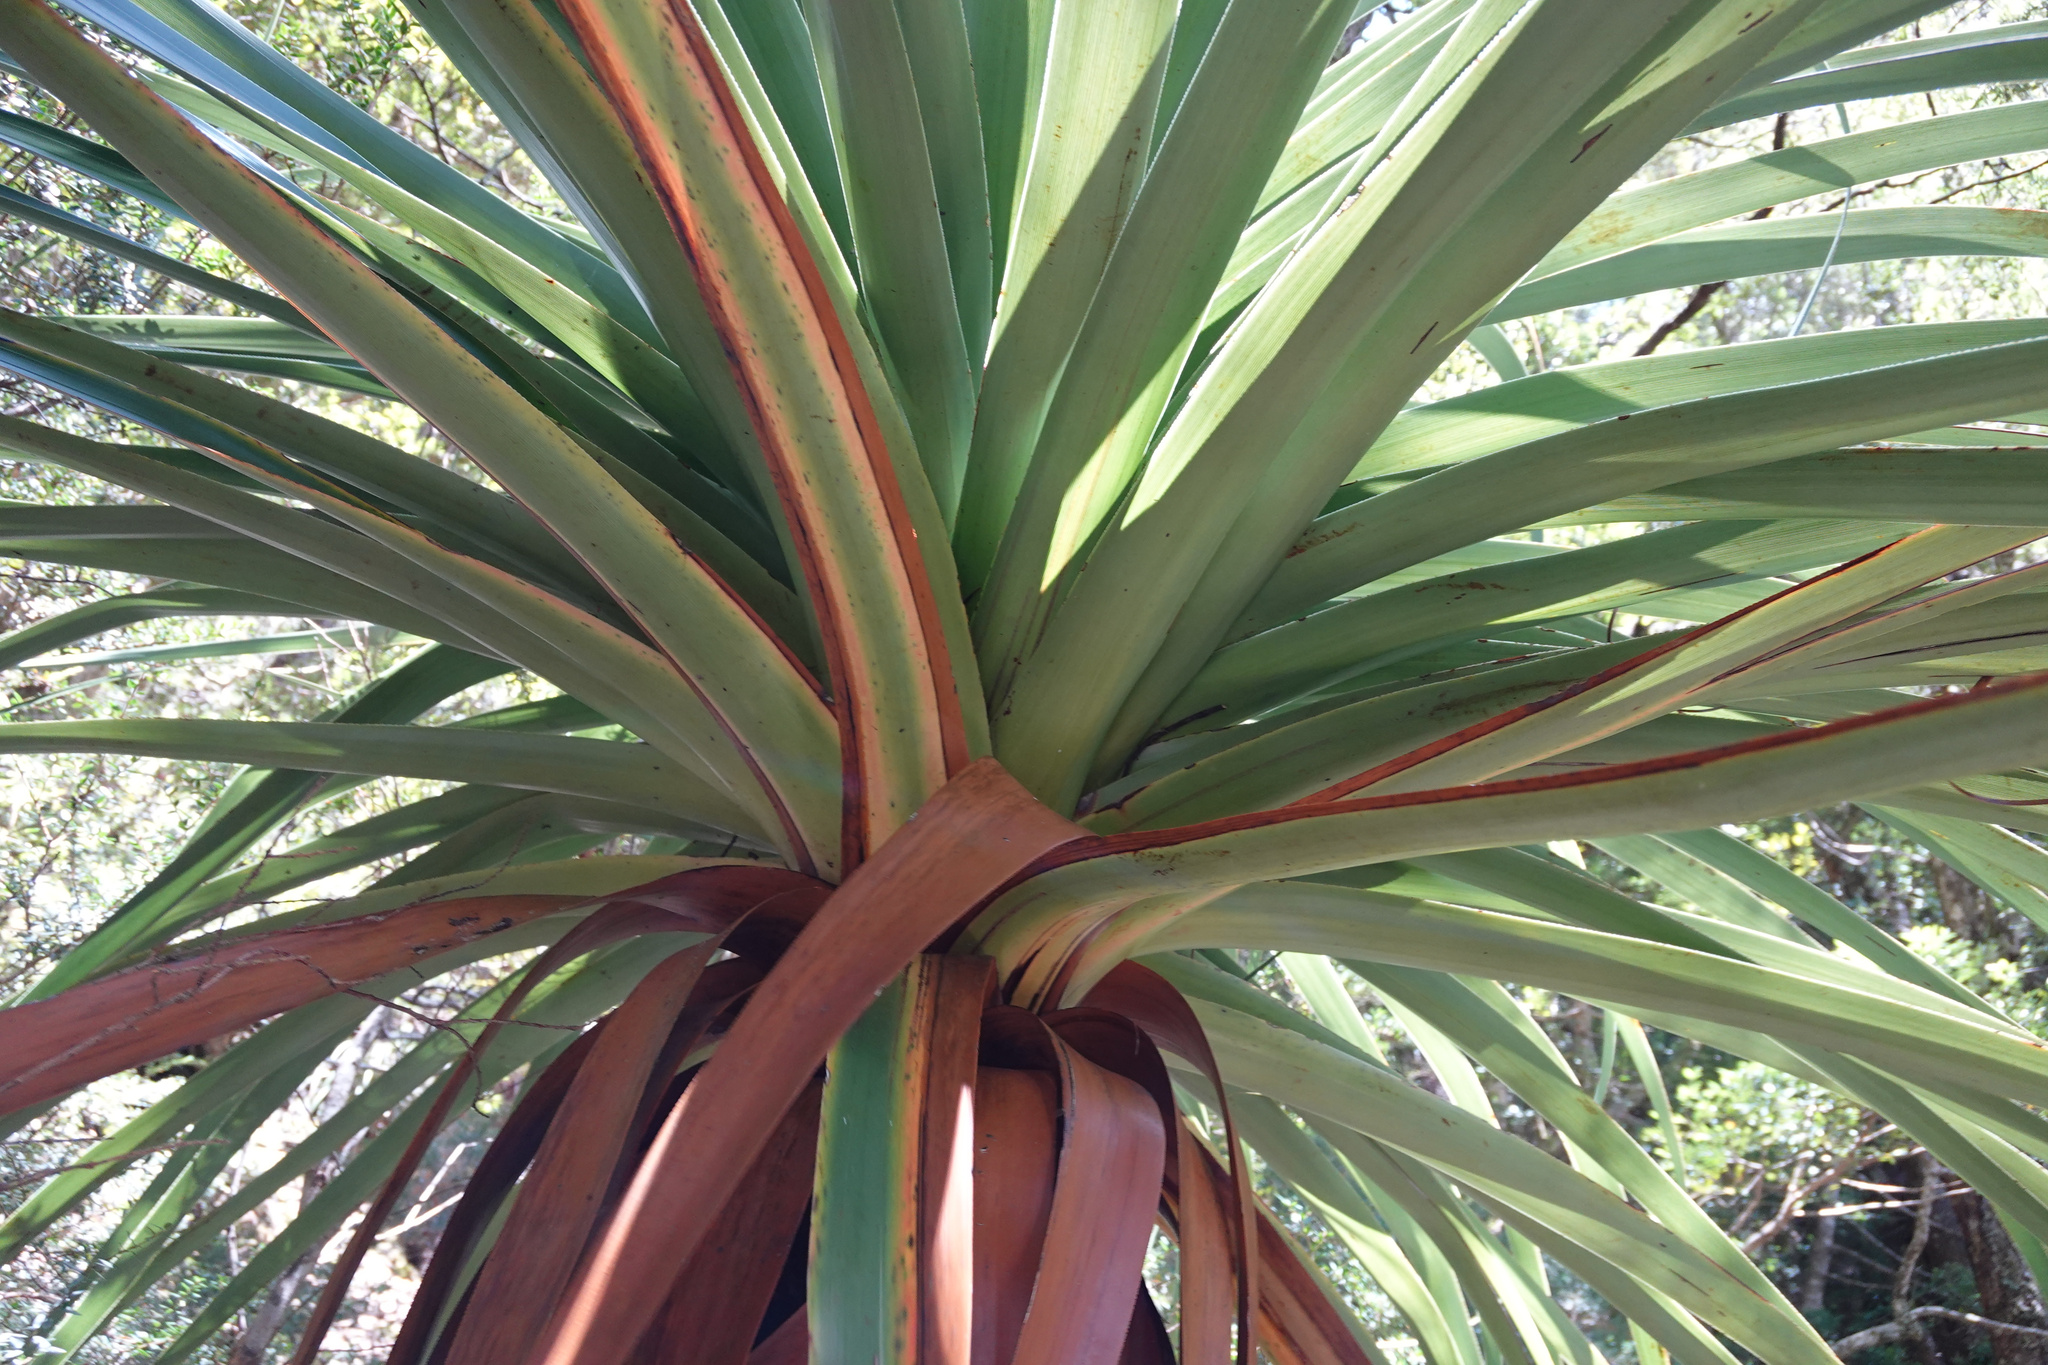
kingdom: Plantae
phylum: Tracheophyta
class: Magnoliopsida
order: Ericales
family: Ericaceae
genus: Dracophyllum
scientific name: Dracophyllum pandanifolium
